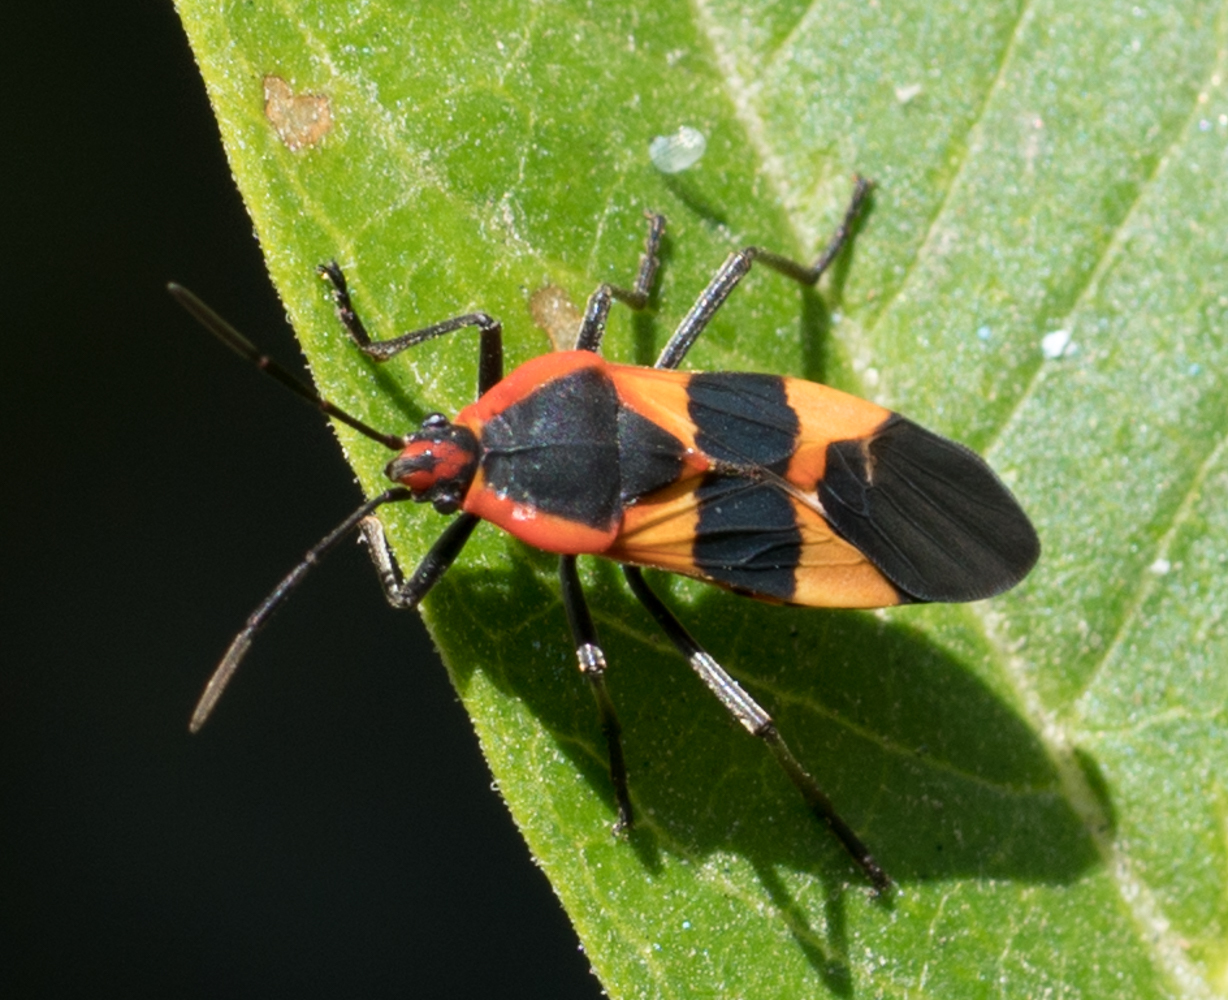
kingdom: Animalia
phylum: Arthropoda
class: Insecta
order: Hemiptera
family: Lygaeidae
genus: Oncopeltus
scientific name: Oncopeltus fasciatus
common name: Large milkweed bug
